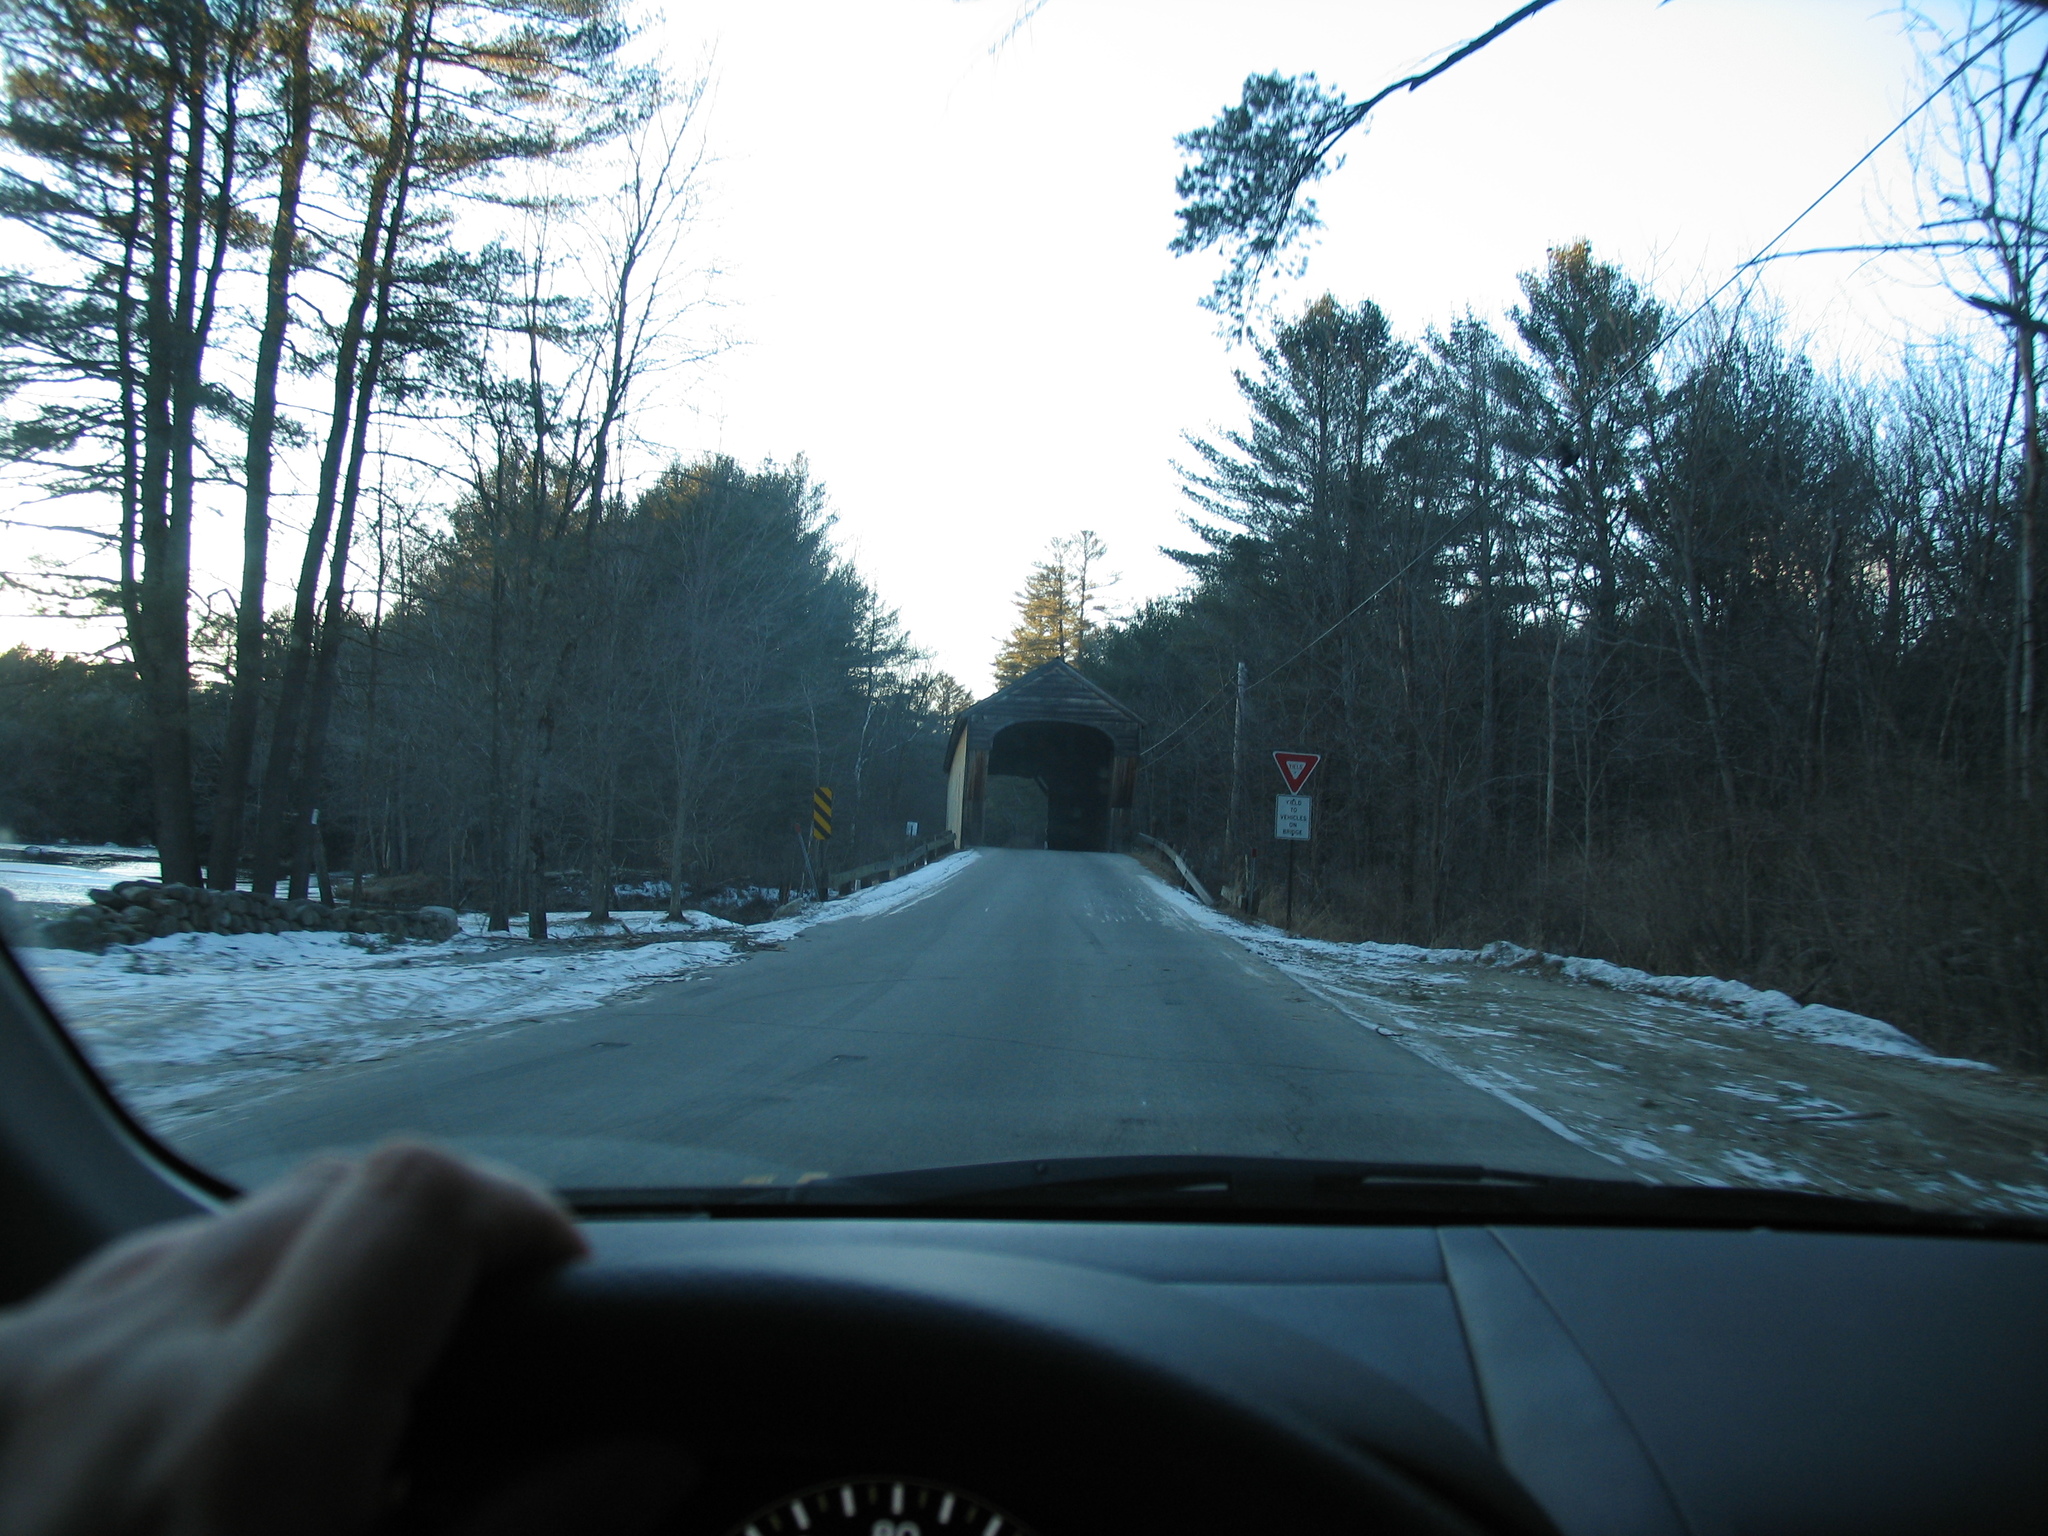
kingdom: Plantae
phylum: Tracheophyta
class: Pinopsida
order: Pinales
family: Pinaceae
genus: Pinus
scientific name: Pinus strobus
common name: Weymouth pine
